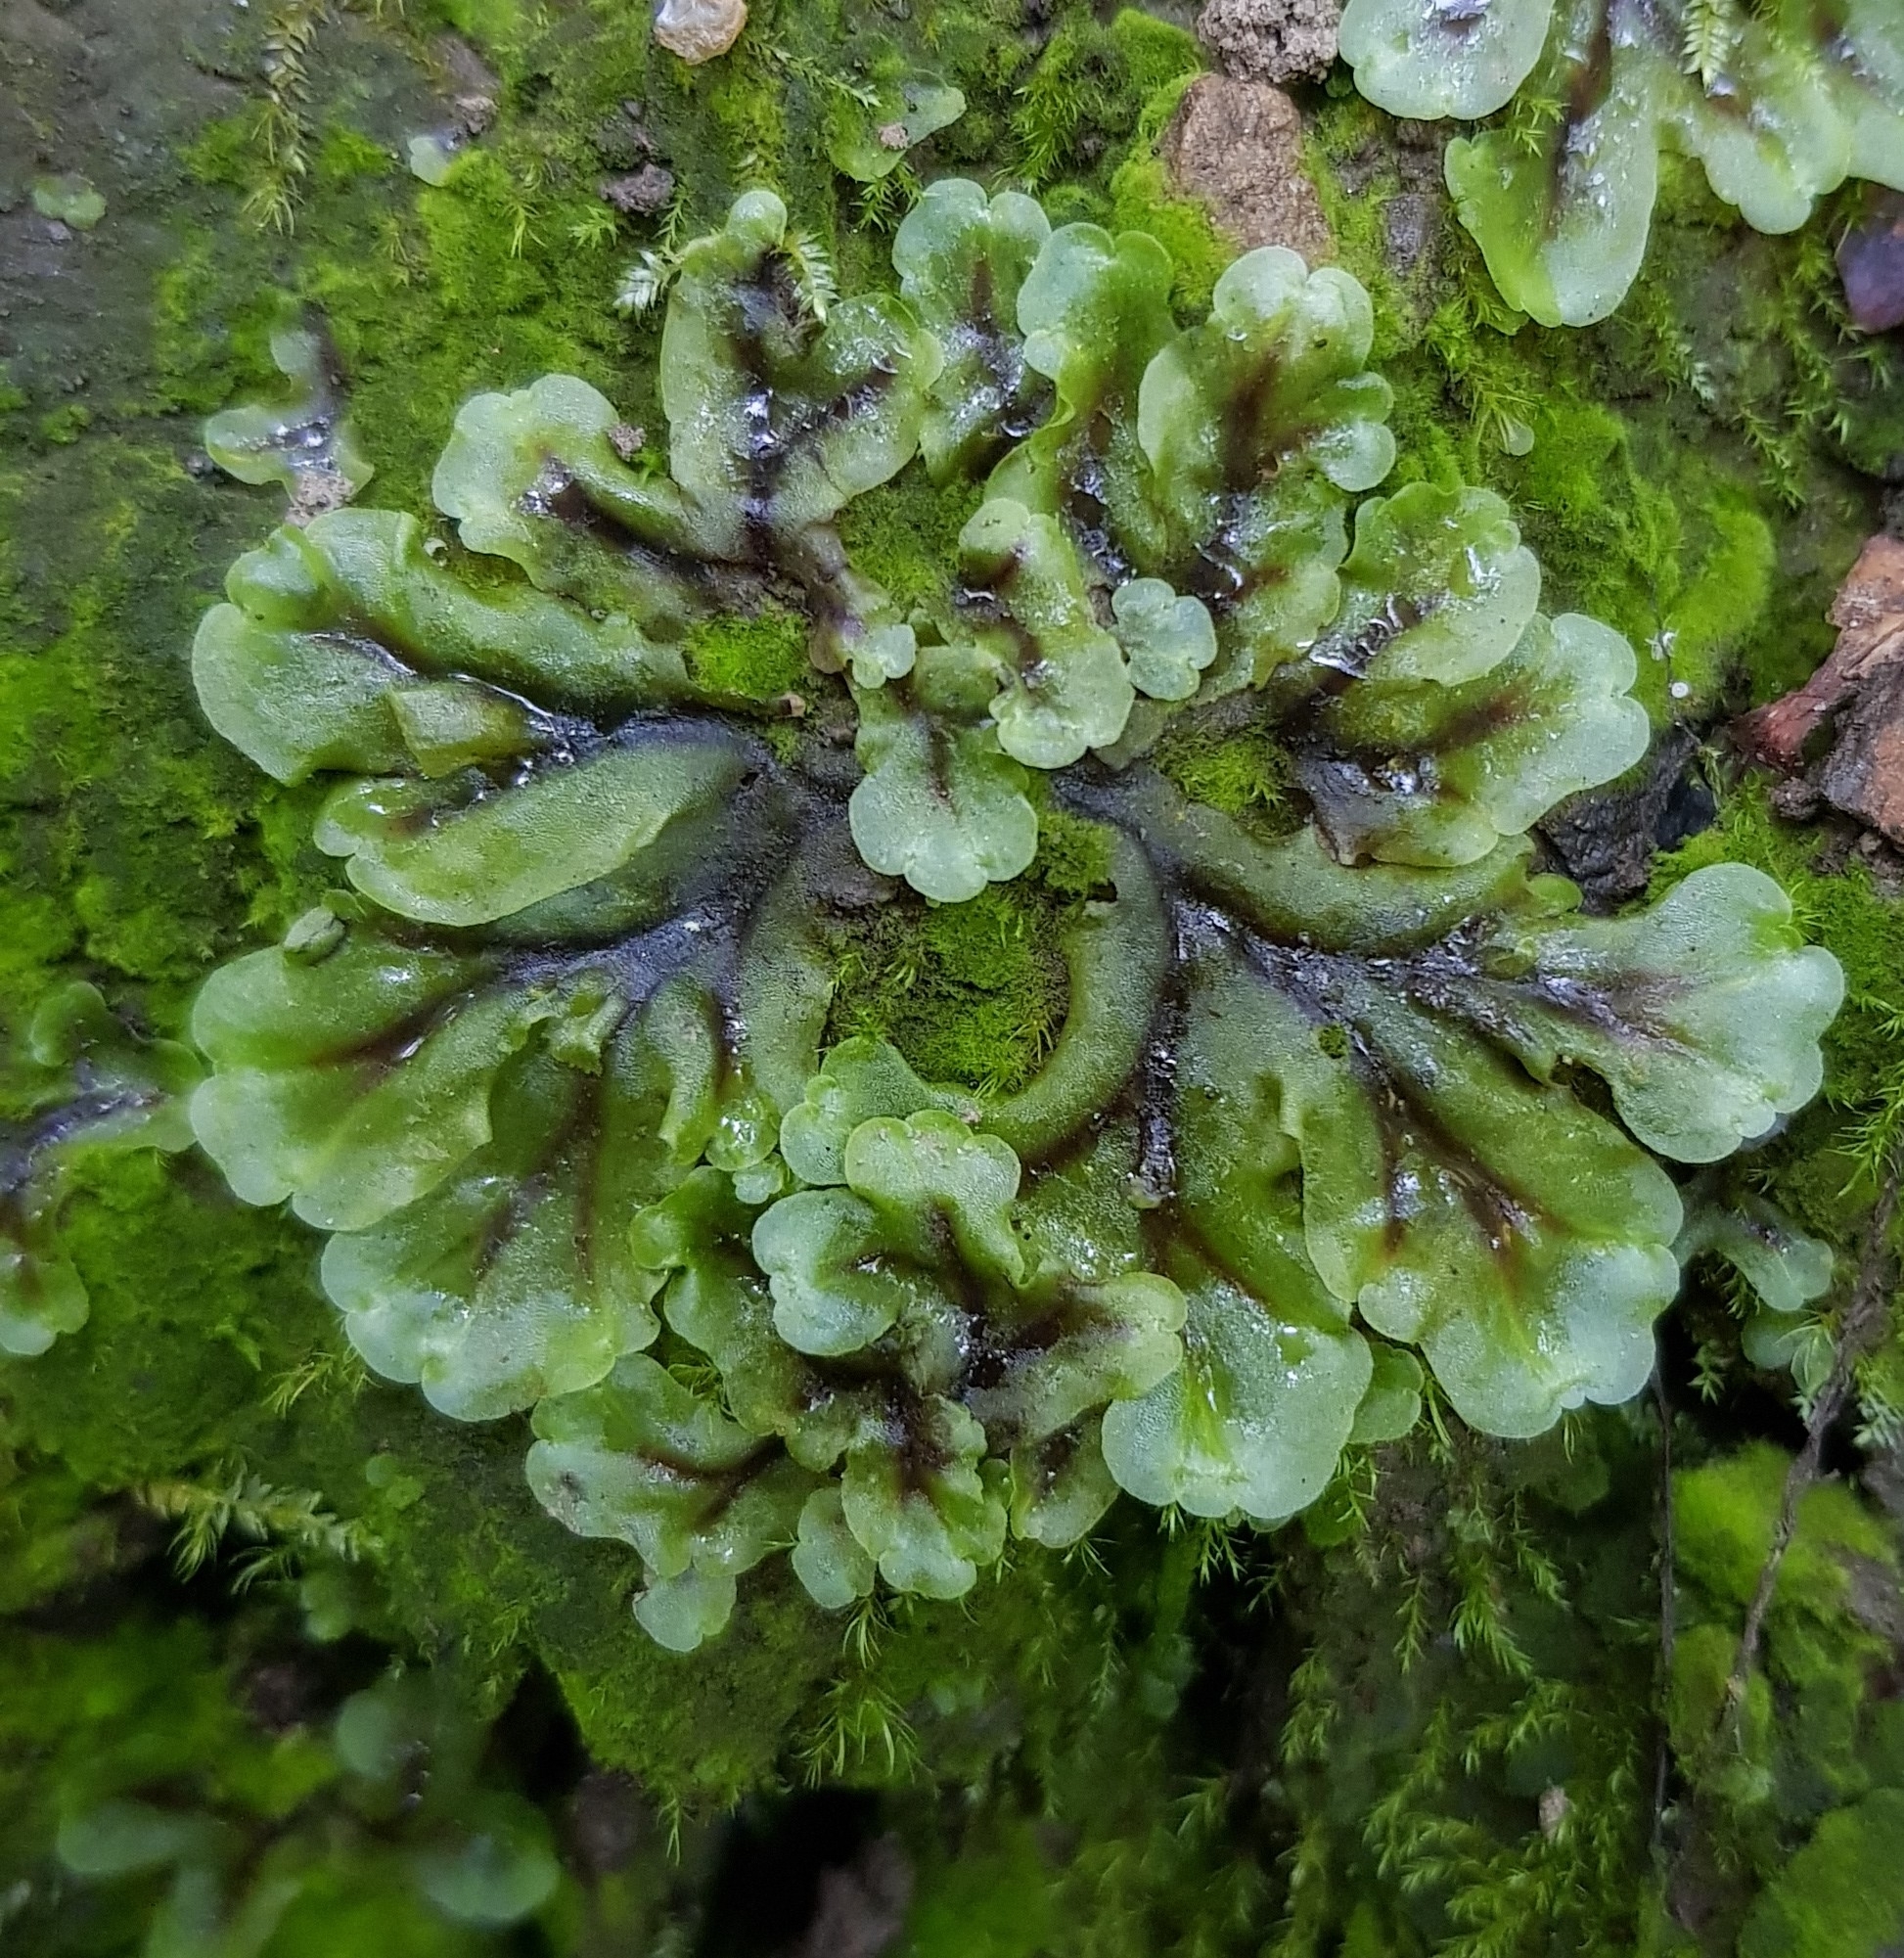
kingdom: Plantae
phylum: Marchantiophyta
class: Jungermanniopsida
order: Pelliales
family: Pelliaceae
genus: Pellia
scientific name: Pellia epiphylla
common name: Common pellia
